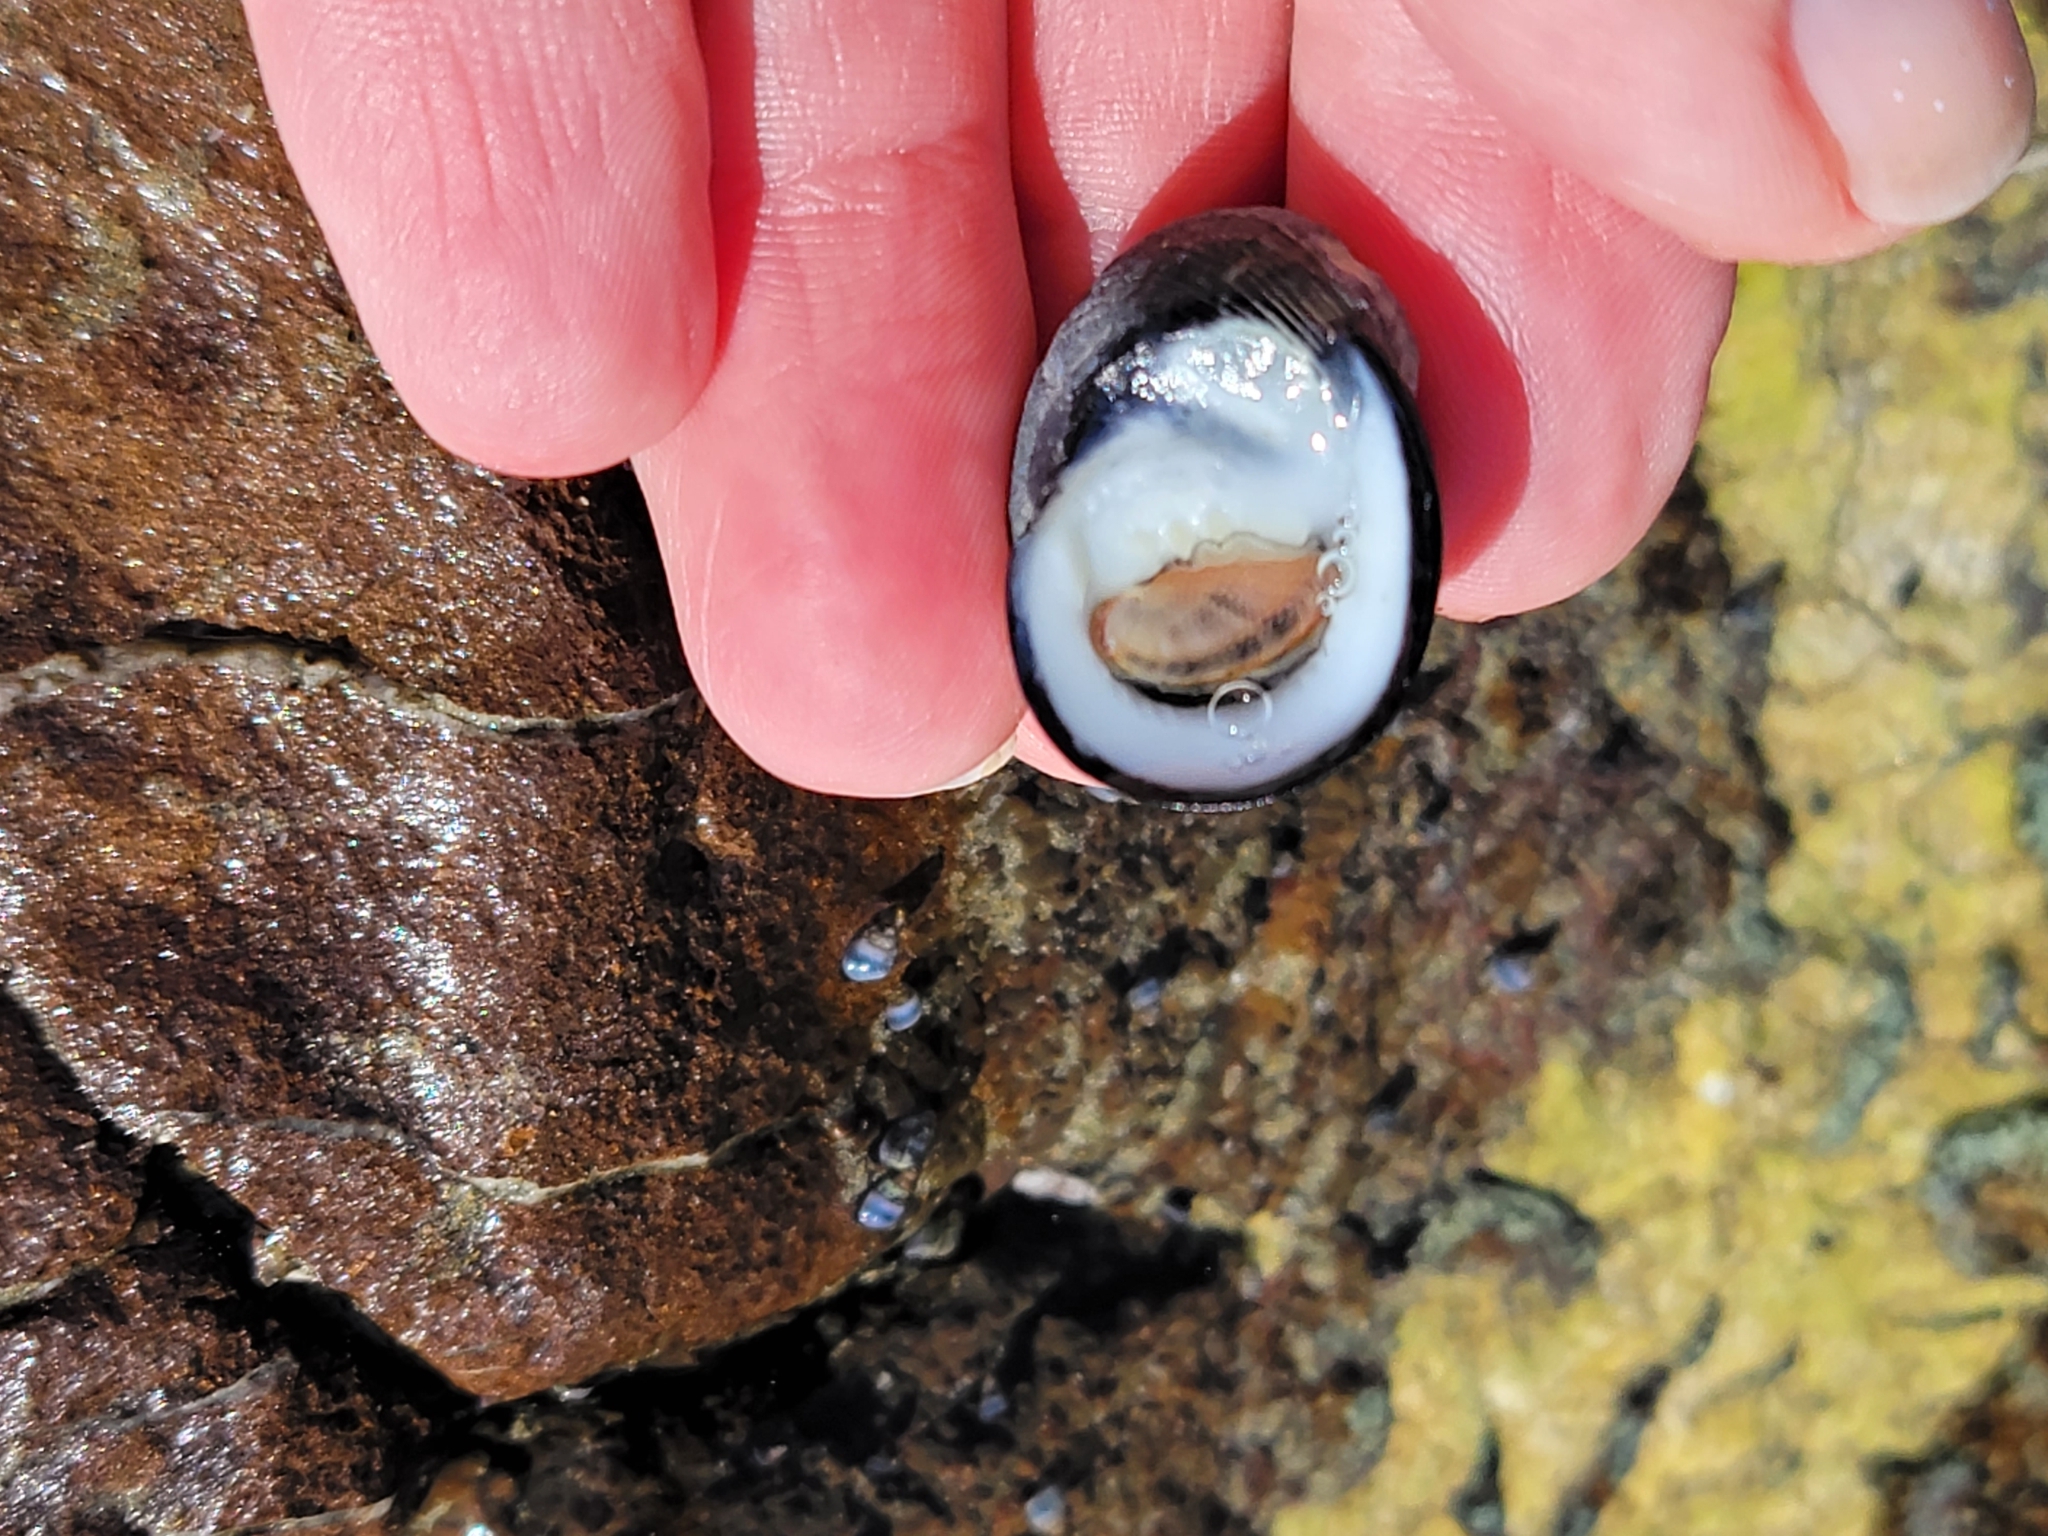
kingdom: Animalia
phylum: Mollusca
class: Gastropoda
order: Cycloneritida
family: Neritidae
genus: Nerita
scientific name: Nerita melanotragus
